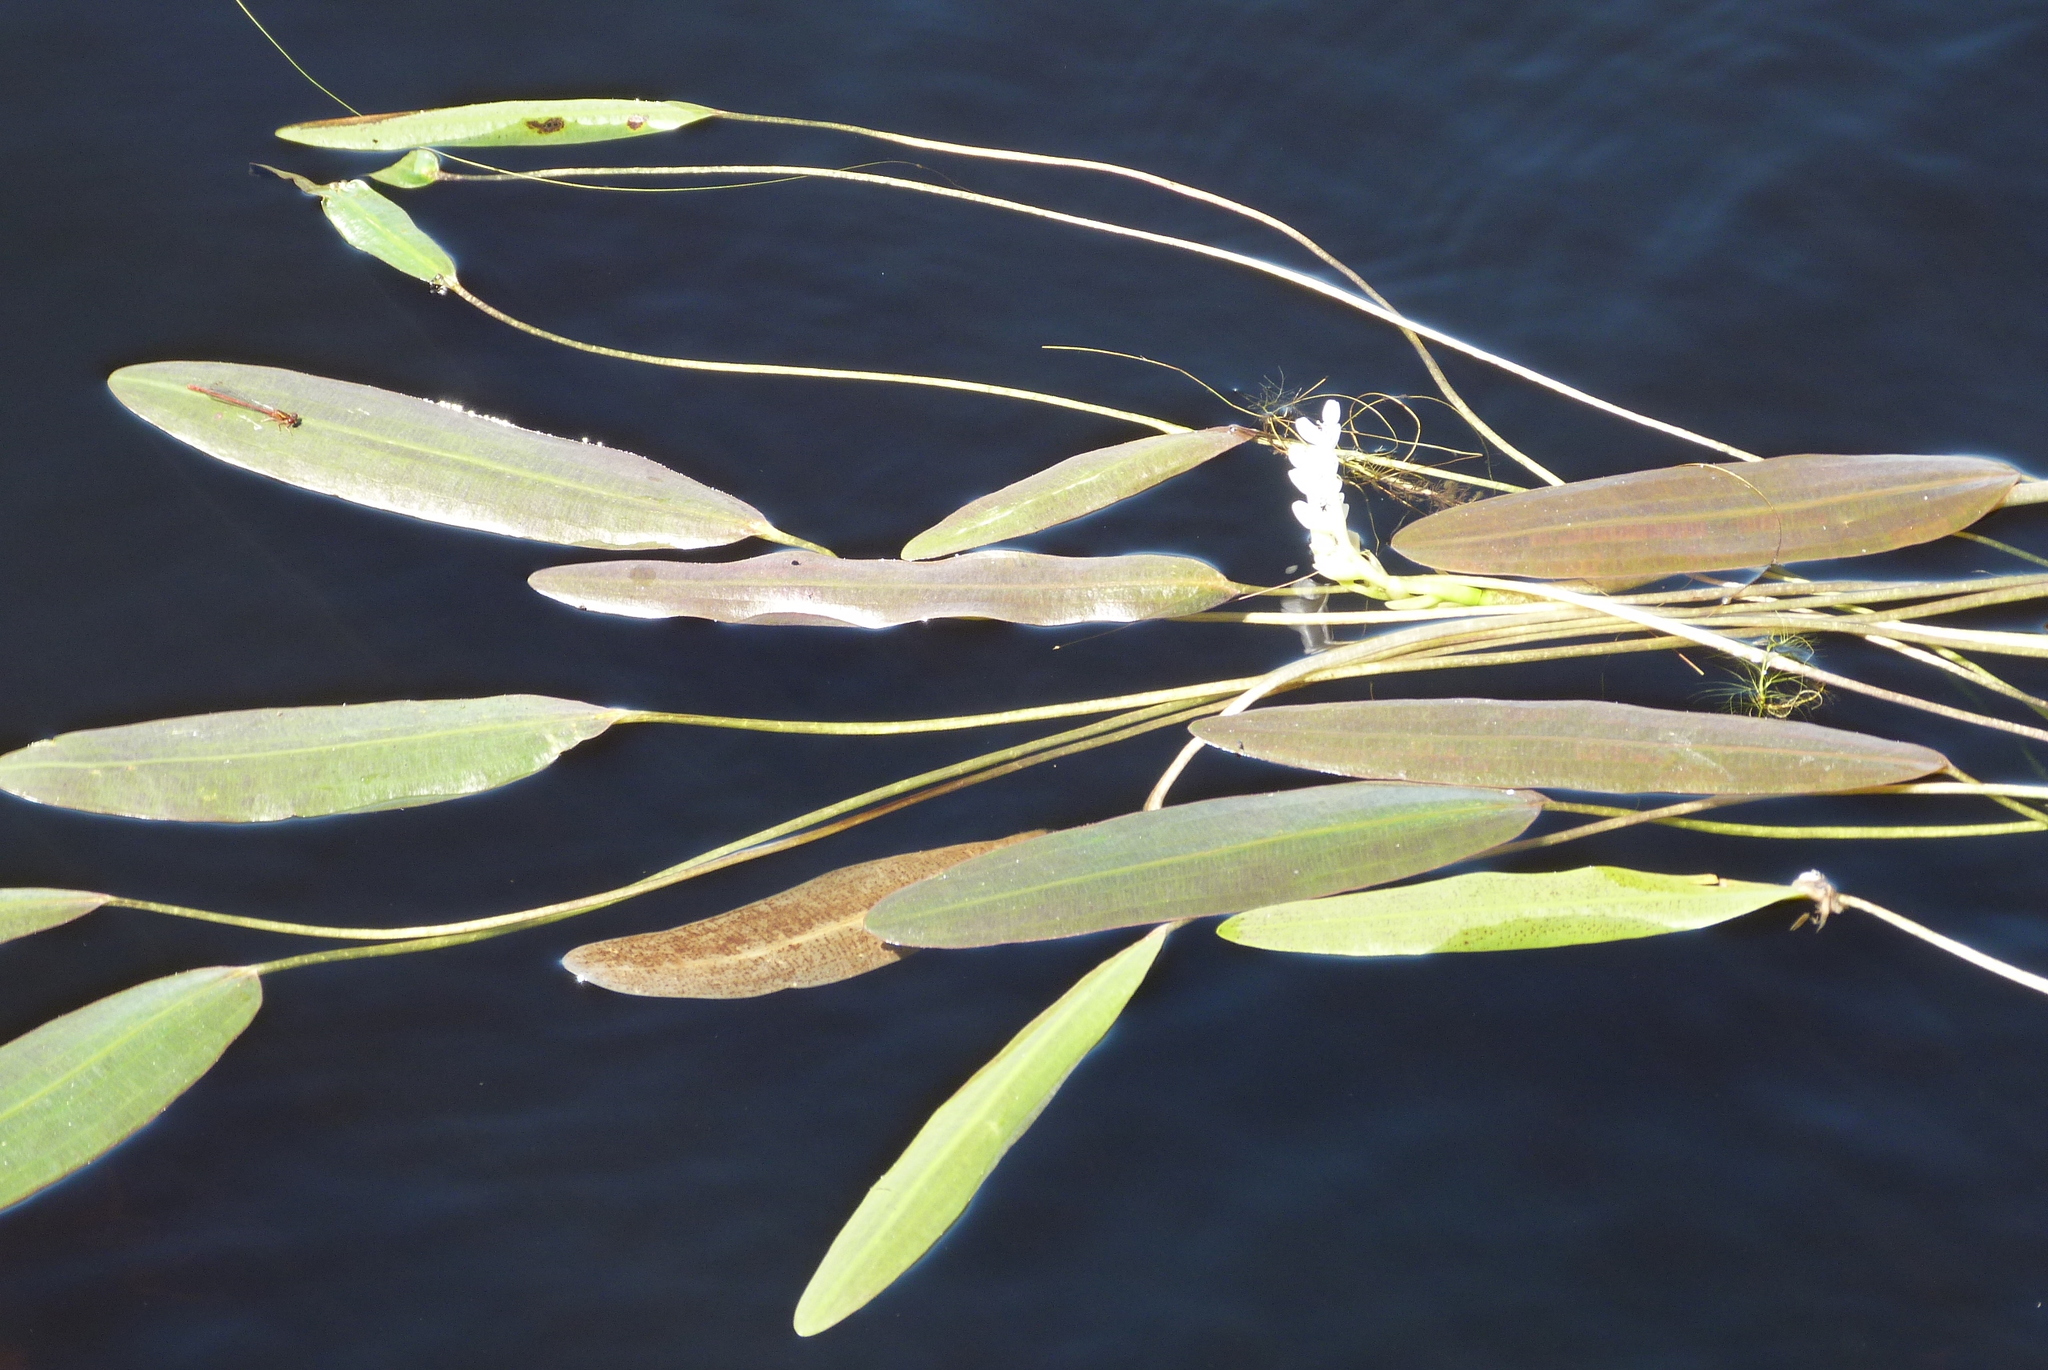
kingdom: Plantae
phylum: Tracheophyta
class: Liliopsida
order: Alismatales
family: Aponogetonaceae
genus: Aponogeton
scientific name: Aponogeton distachyos
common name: Cape-pondweed
